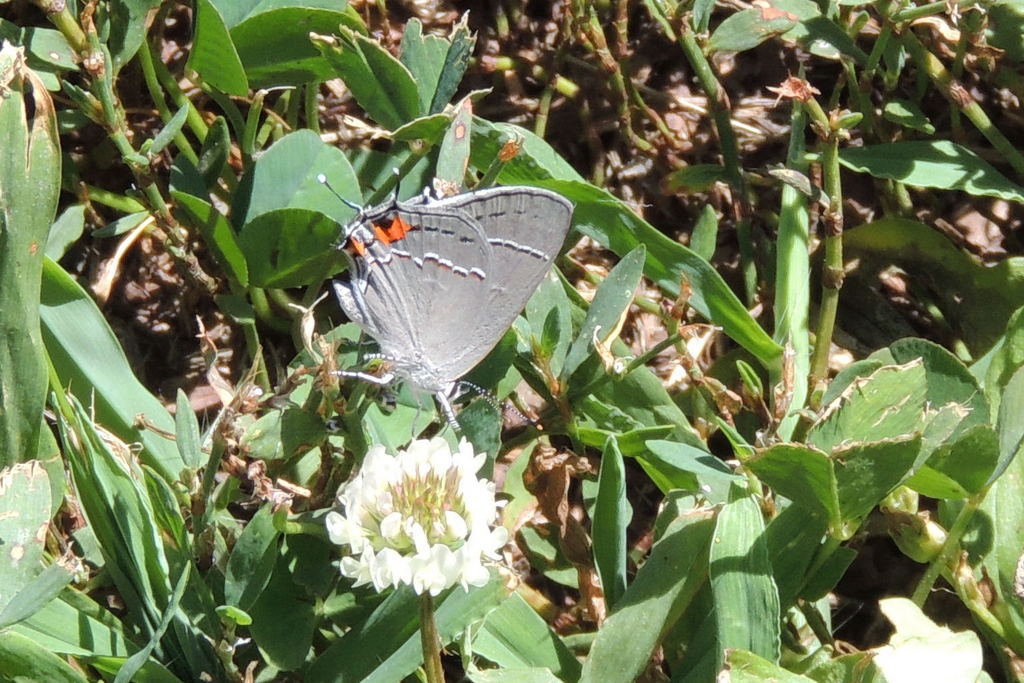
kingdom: Animalia
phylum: Arthropoda
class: Insecta
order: Lepidoptera
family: Lycaenidae
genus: Strymon
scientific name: Strymon melinus
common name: Gray hairstreak
